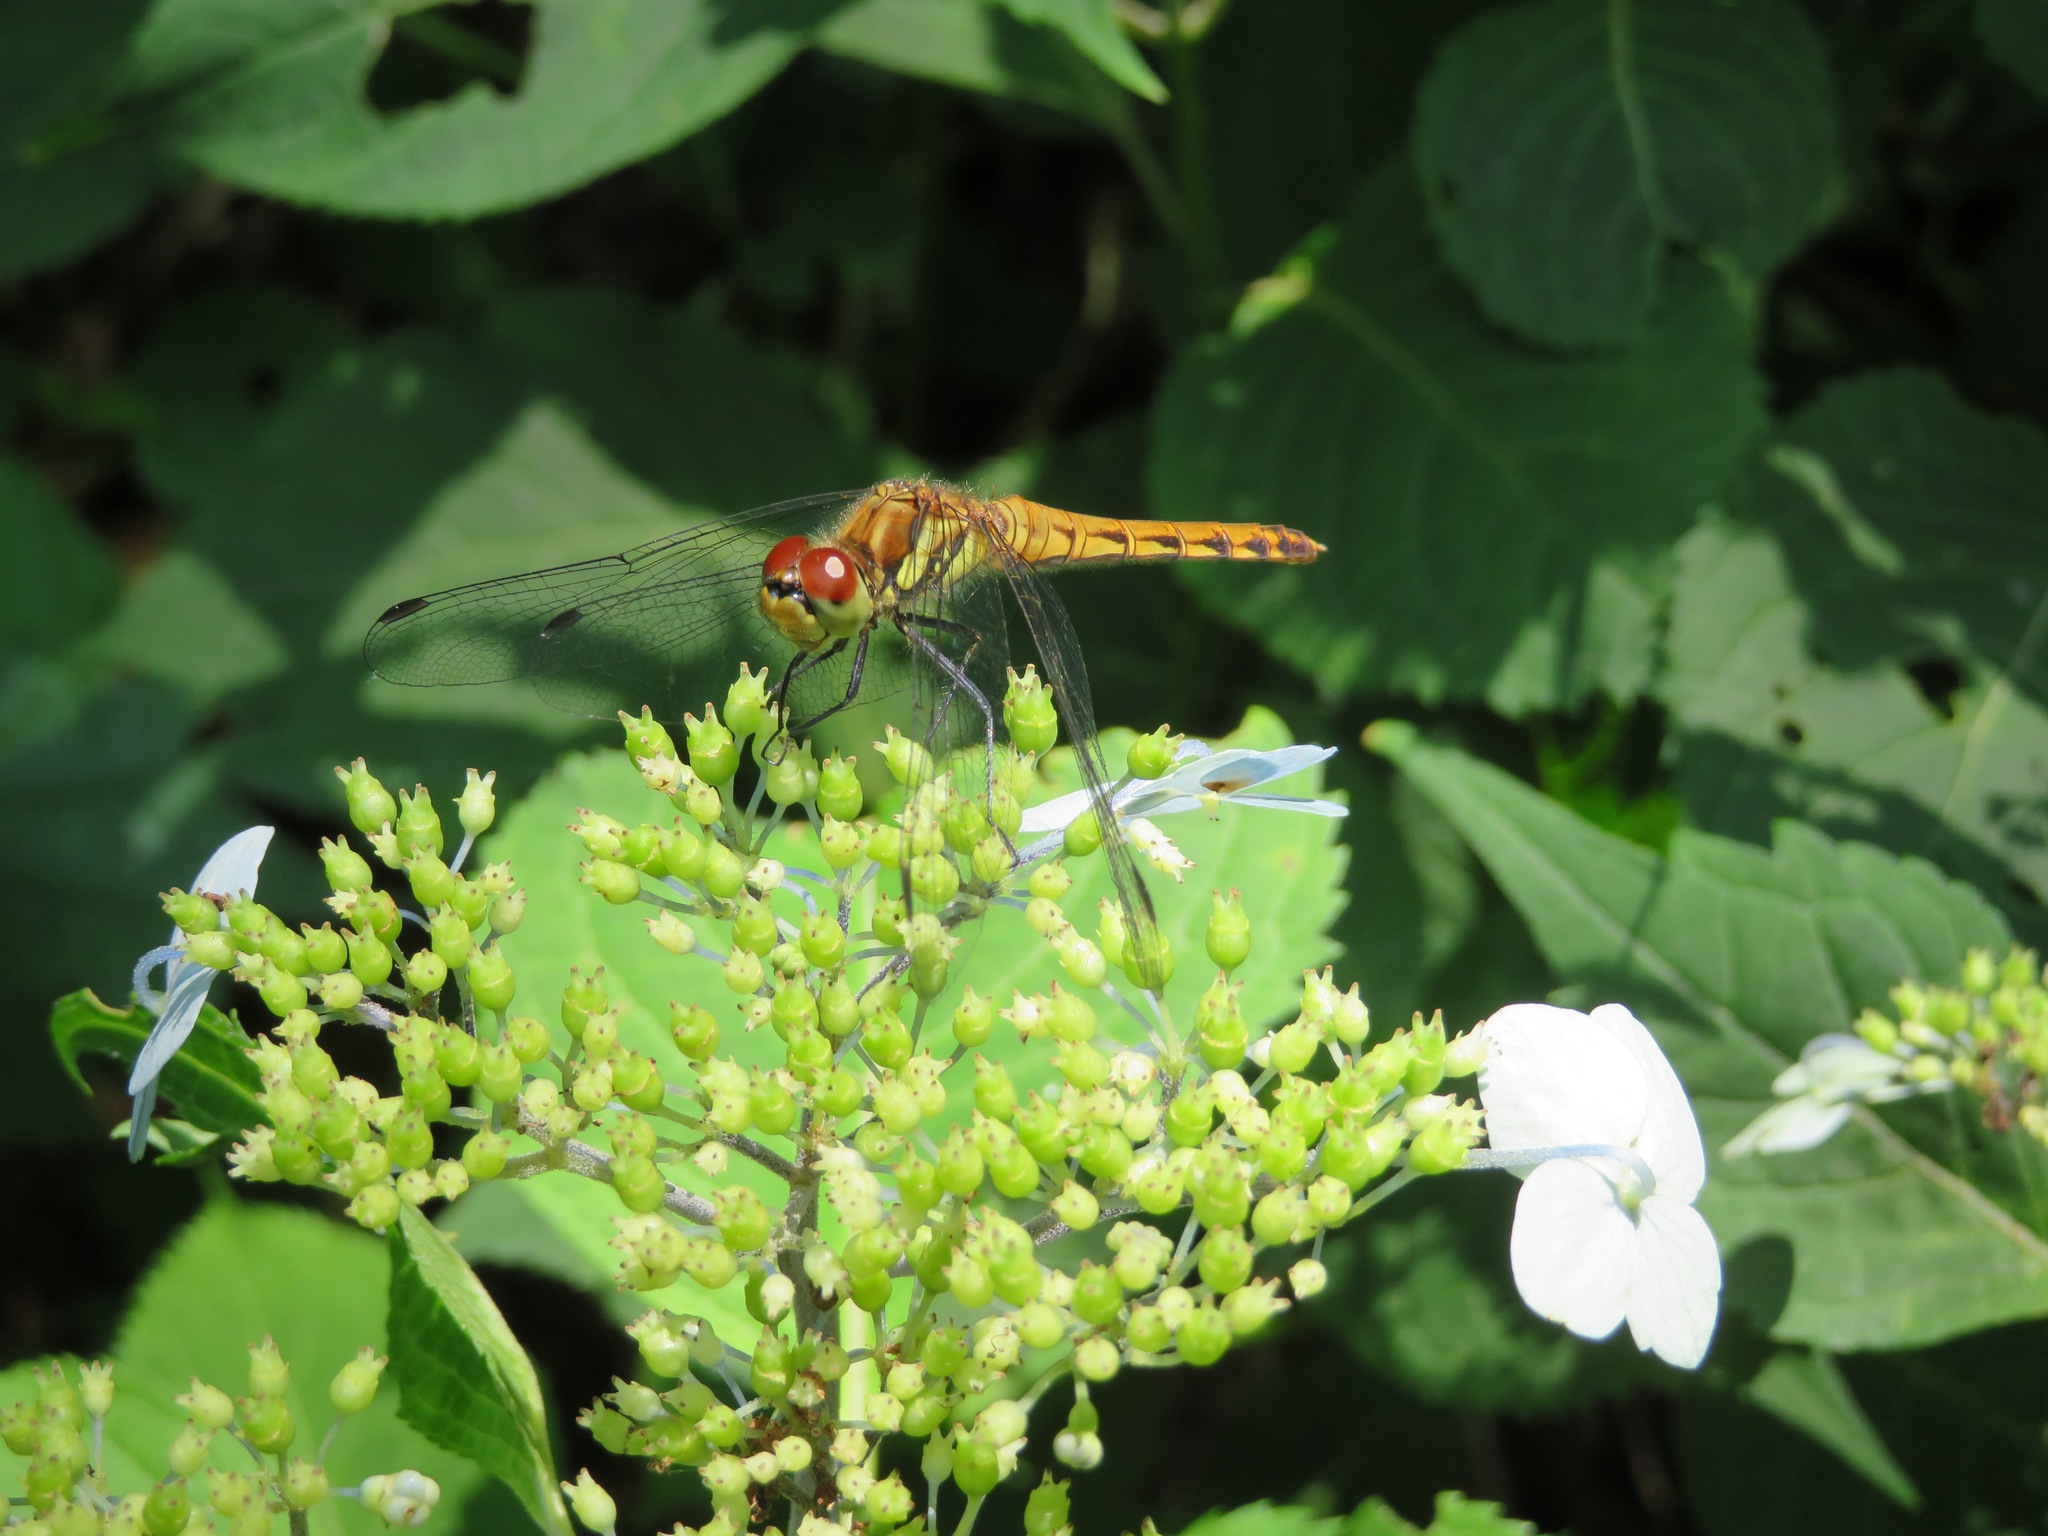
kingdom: Animalia
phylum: Arthropoda
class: Insecta
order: Odonata
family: Libellulidae
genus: Sympetrum
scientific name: Sympetrum frequens
